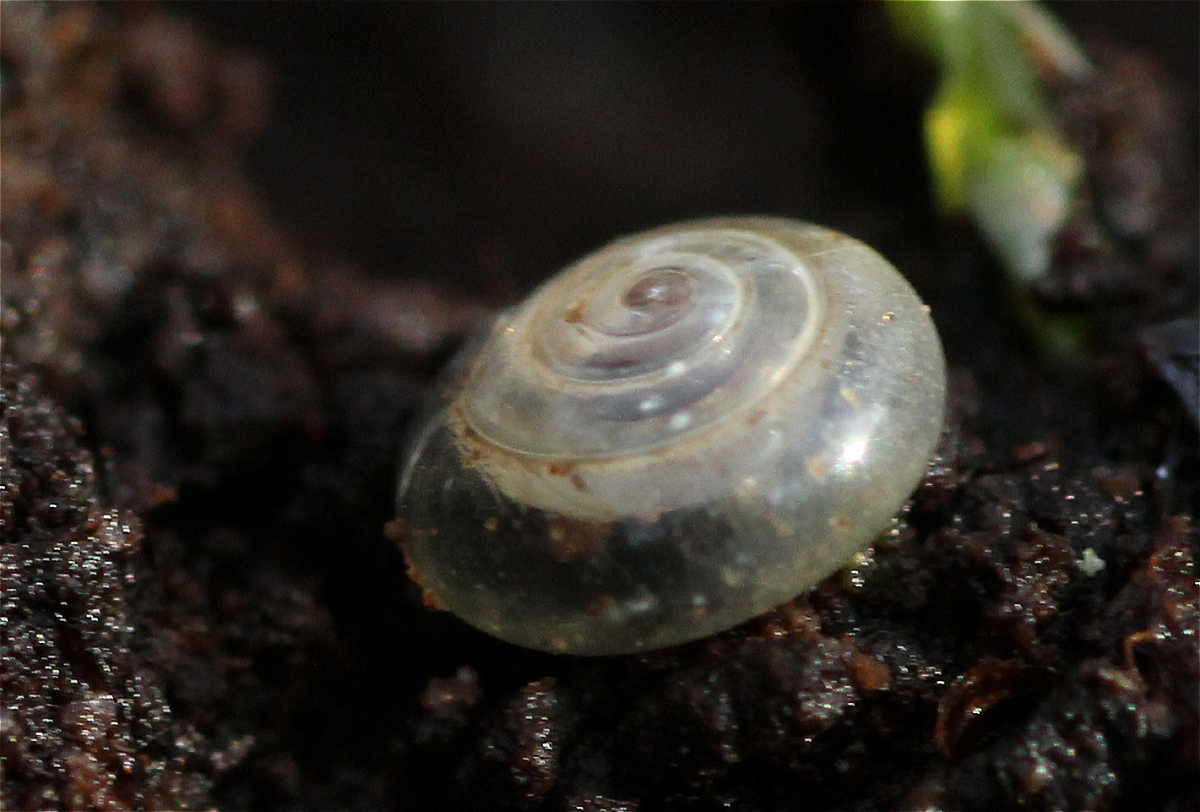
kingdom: Animalia
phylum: Mollusca
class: Gastropoda
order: Stylommatophora
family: Pristilomatidae
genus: Vitrea
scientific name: Vitrea crystallina
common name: Crystal snail
